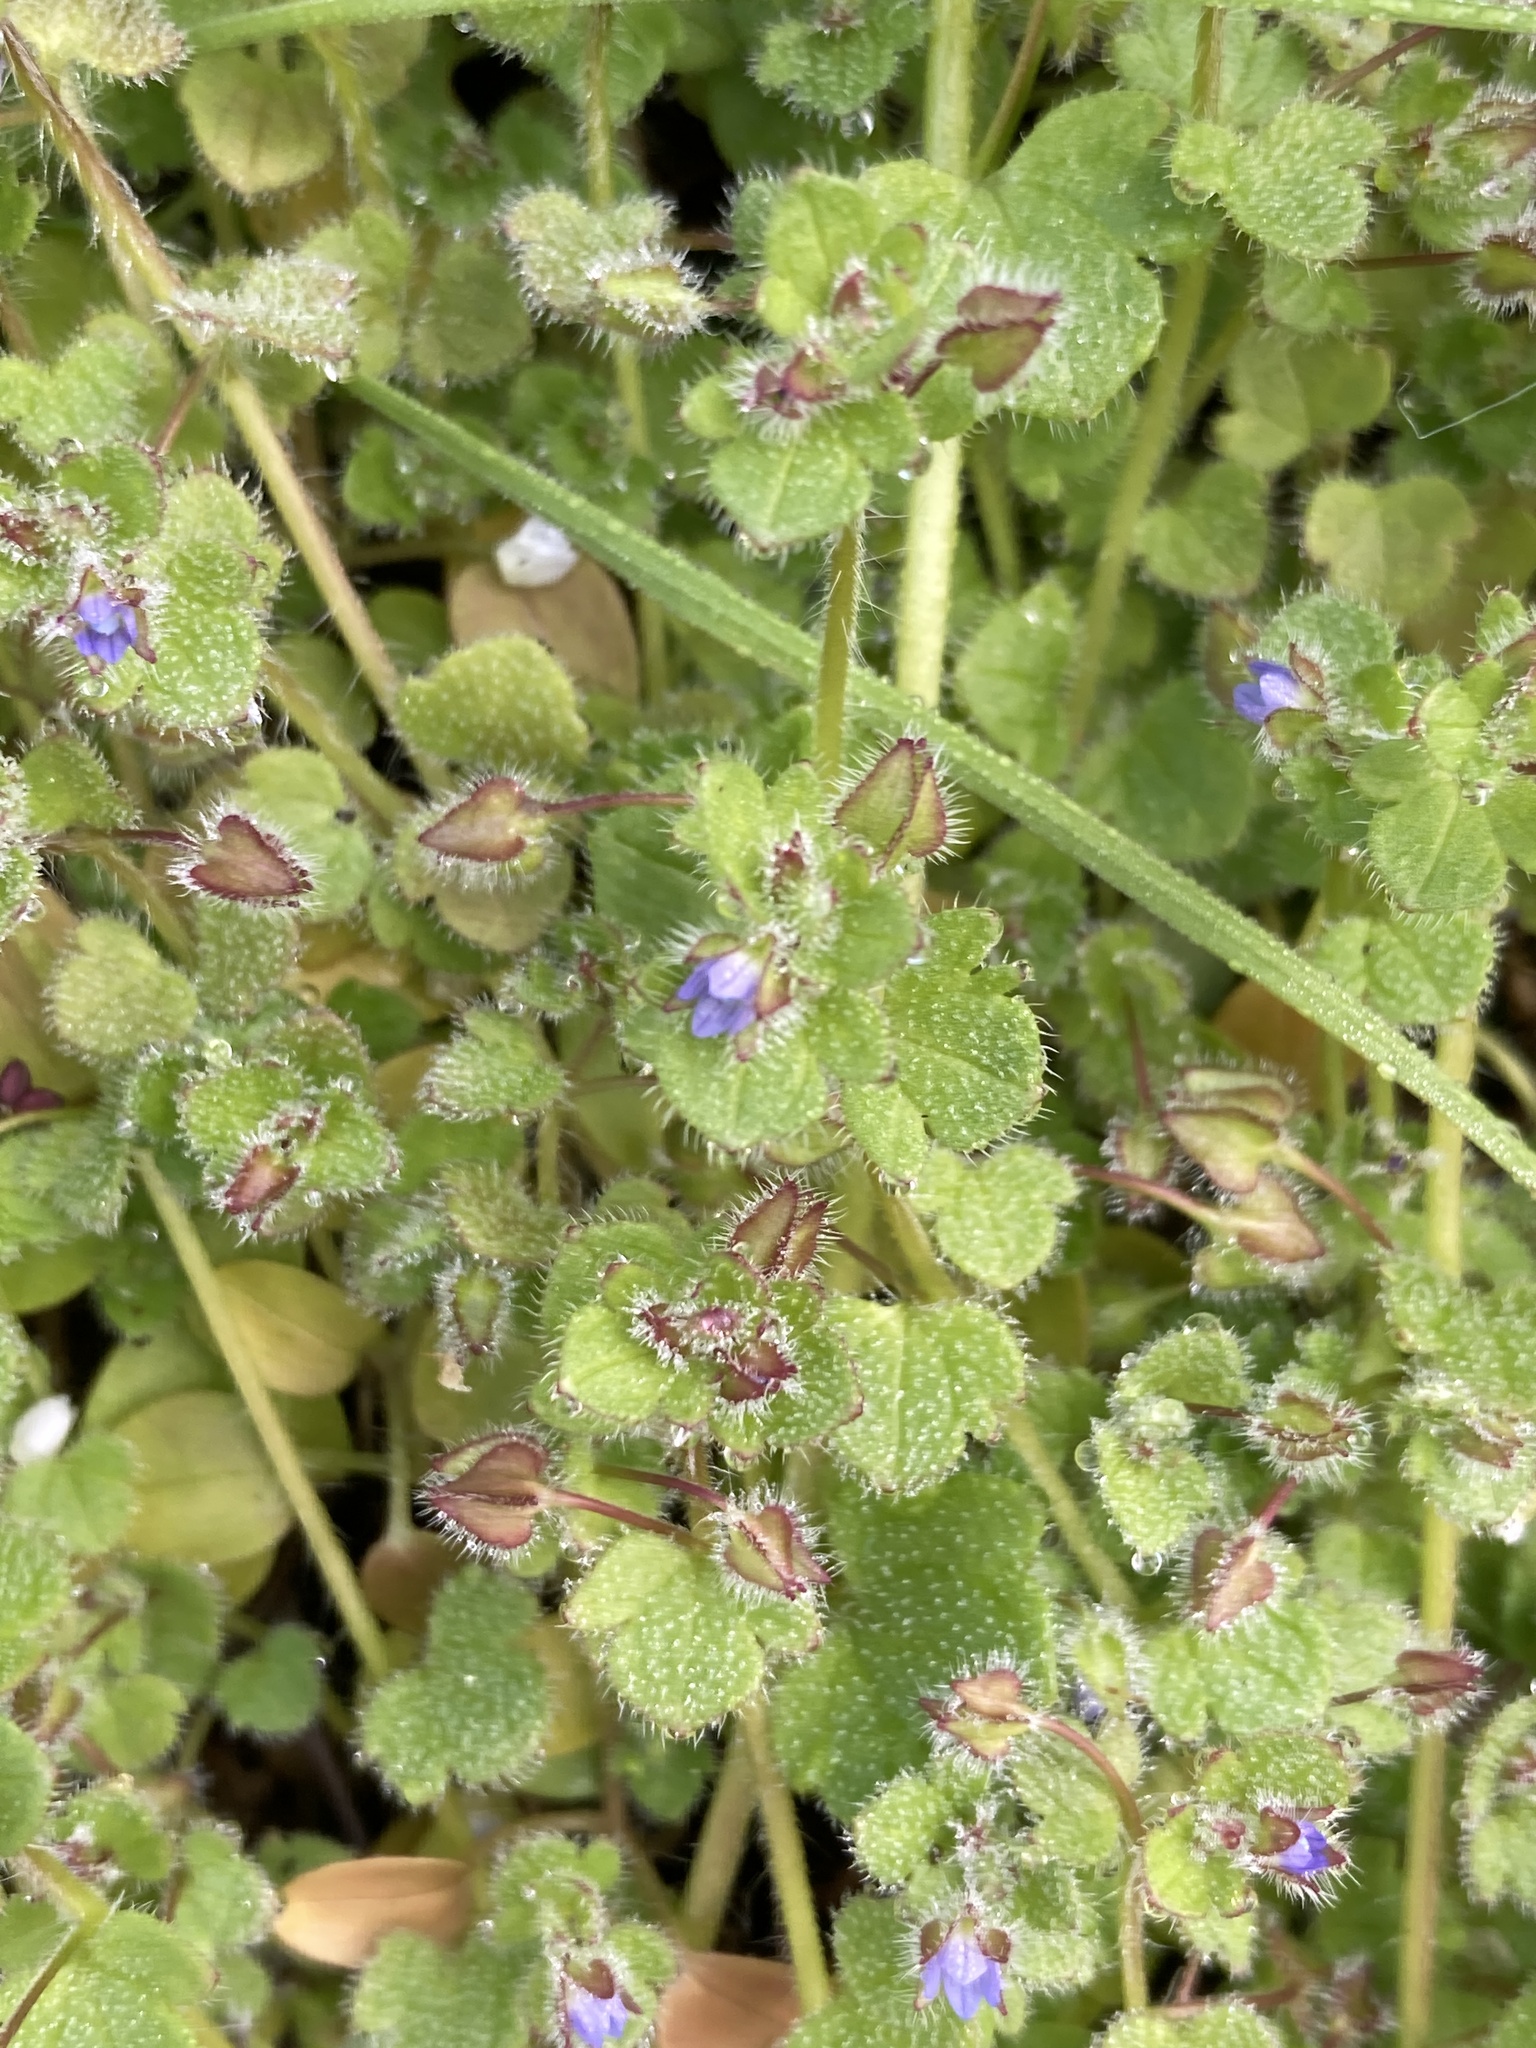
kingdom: Plantae
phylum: Tracheophyta
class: Magnoliopsida
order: Lamiales
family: Plantaginaceae
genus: Veronica
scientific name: Veronica hederifolia
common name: Ivy-leaved speedwell
